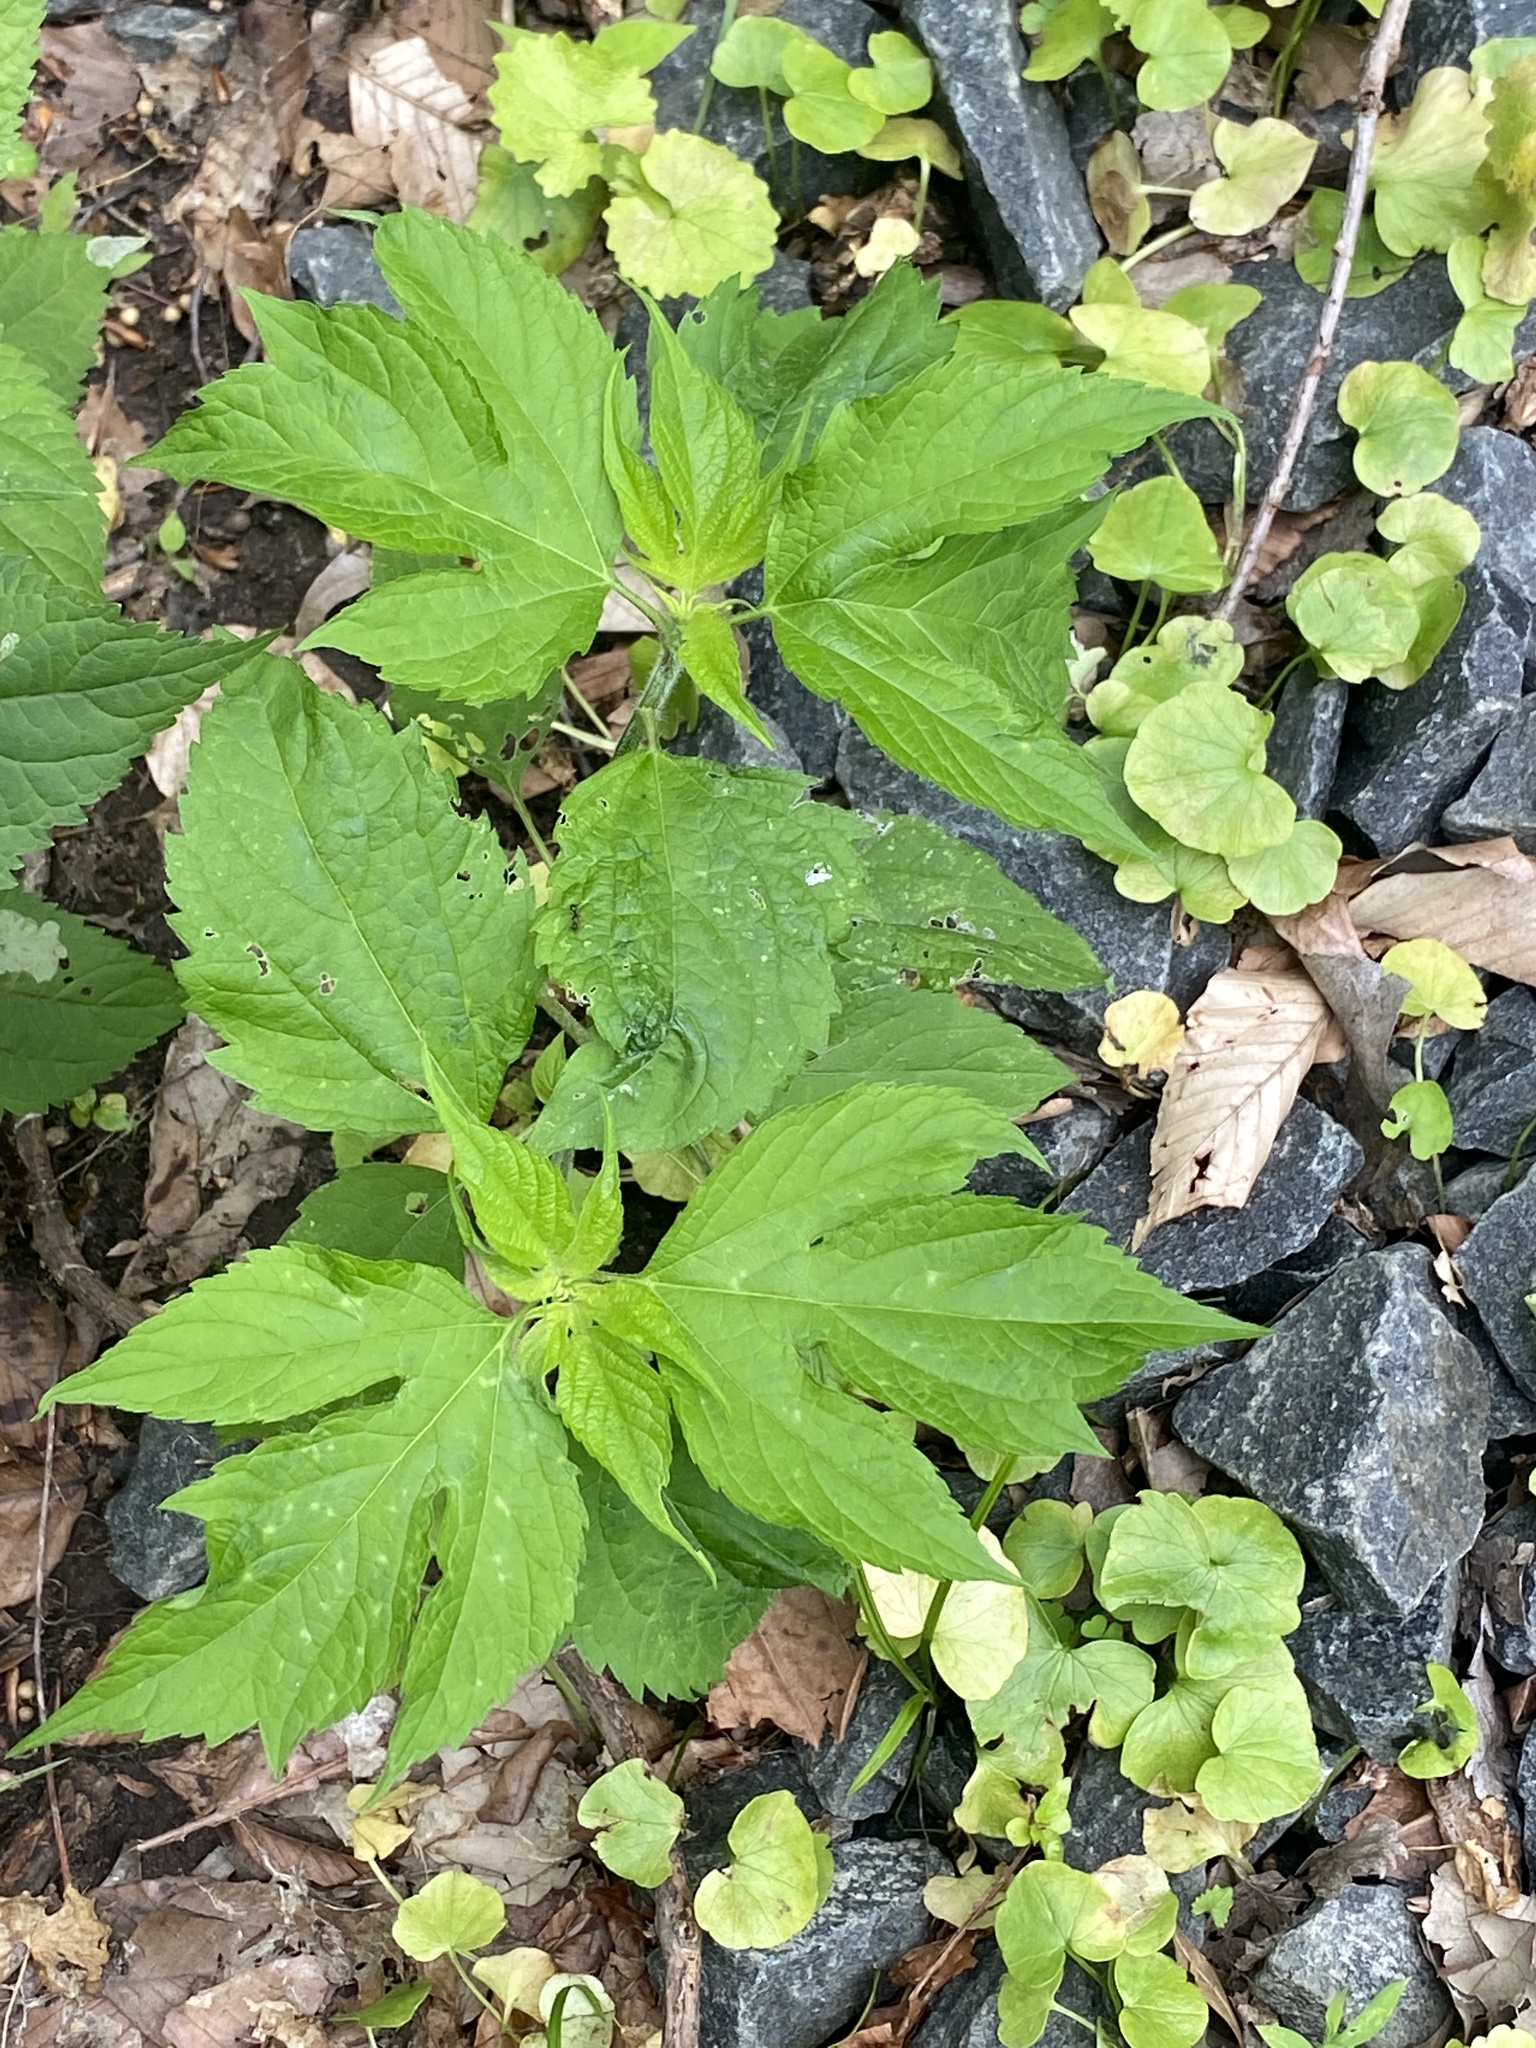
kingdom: Plantae
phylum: Tracheophyta
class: Magnoliopsida
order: Asterales
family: Asteraceae
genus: Ambrosia
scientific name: Ambrosia trifida
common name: Giant ragweed
